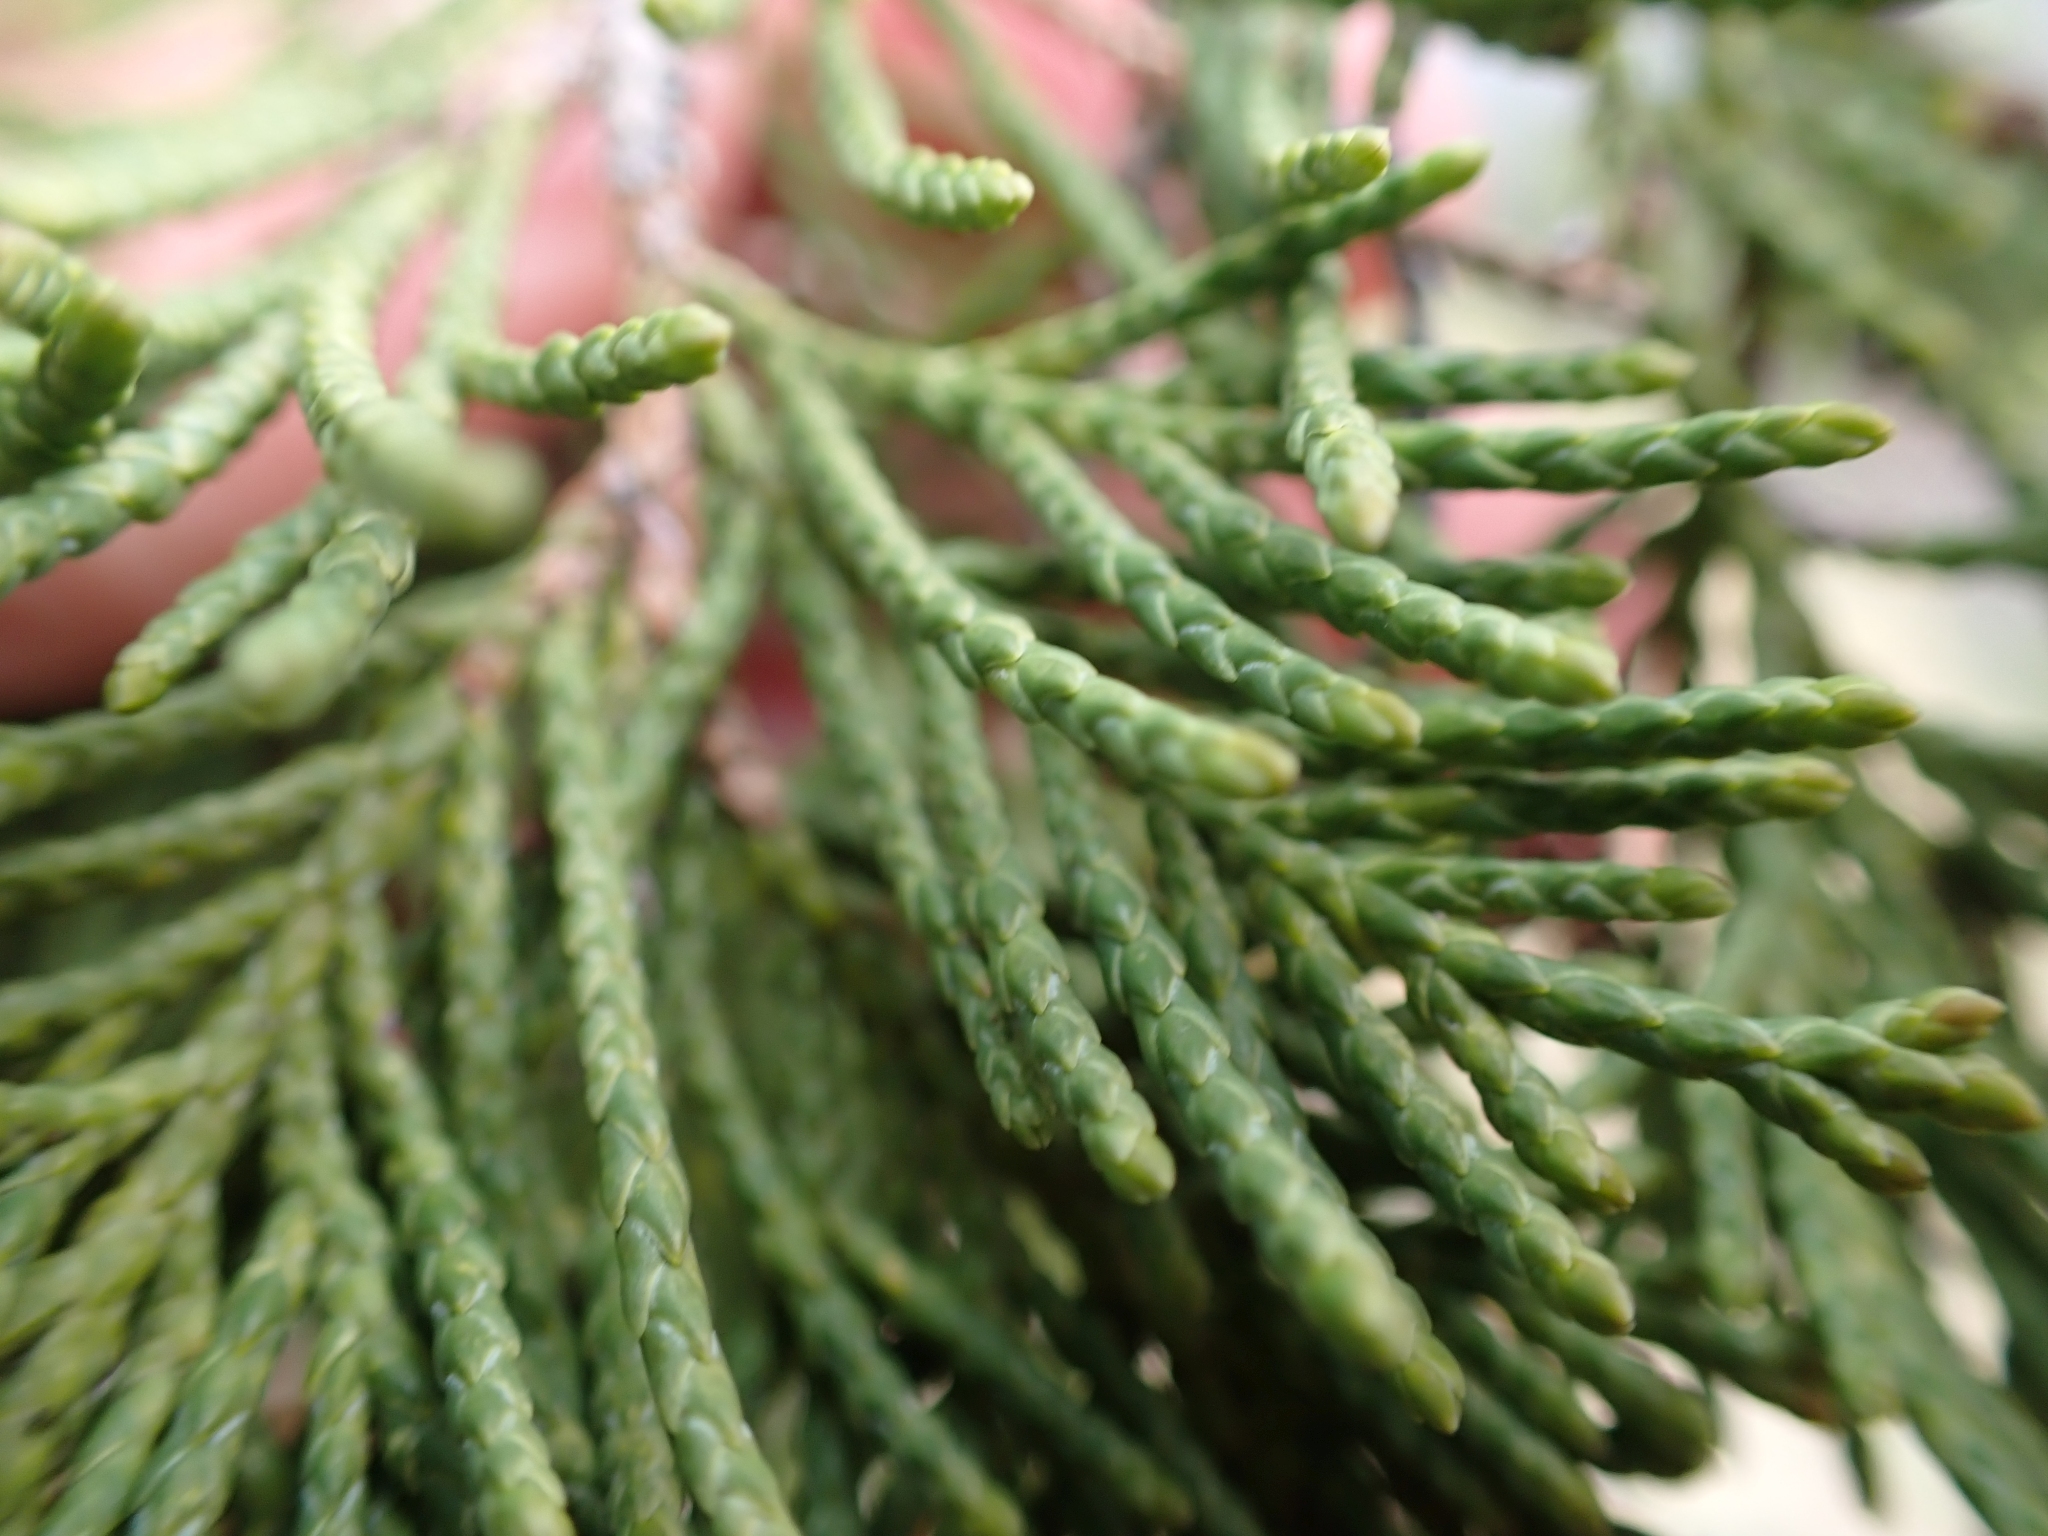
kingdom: Plantae
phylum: Tracheophyta
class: Pinopsida
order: Pinales
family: Cupressaceae
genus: Juniperus
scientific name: Juniperus scopulorum
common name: Rocky mountain juniper
